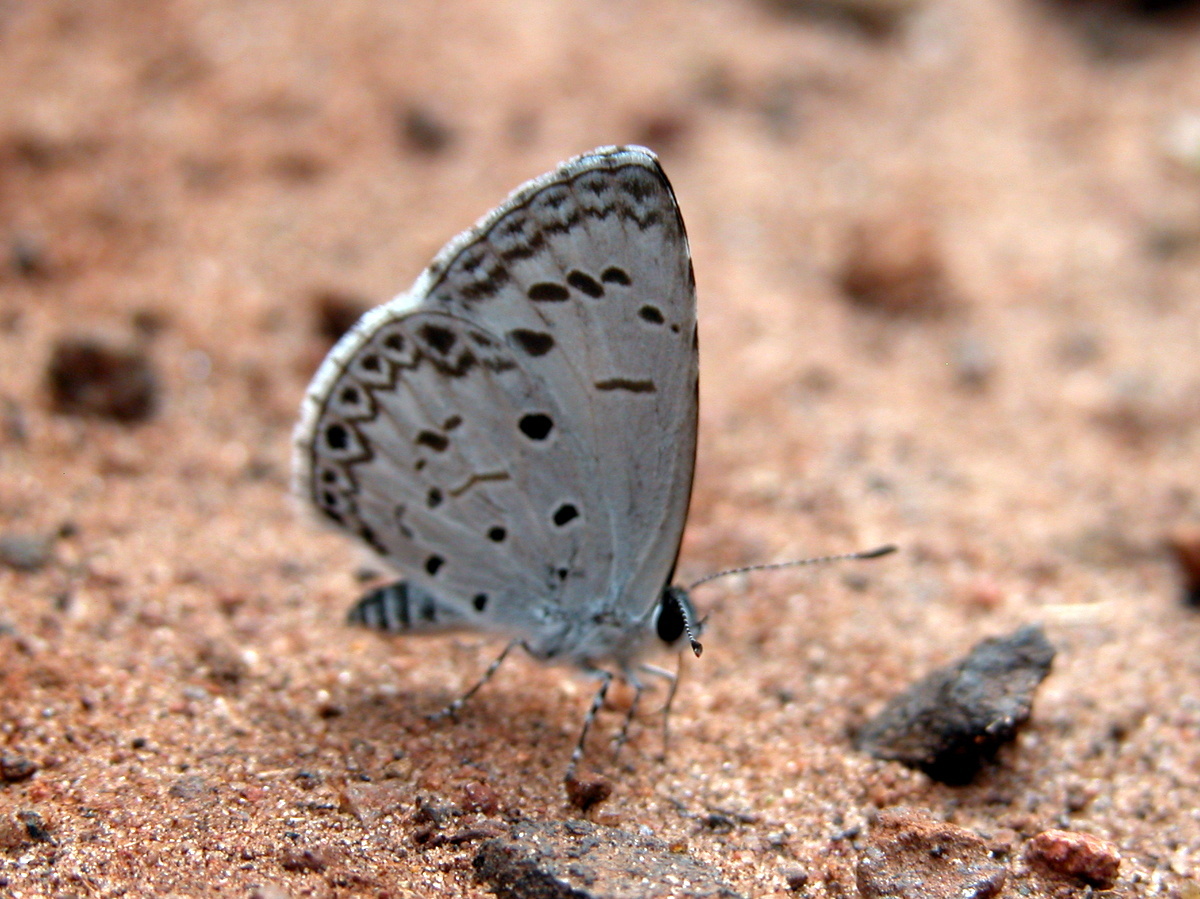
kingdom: Animalia
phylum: Arthropoda
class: Insecta
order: Lepidoptera
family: Lycaenidae
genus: Acytolepis
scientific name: Acytolepis puspa
